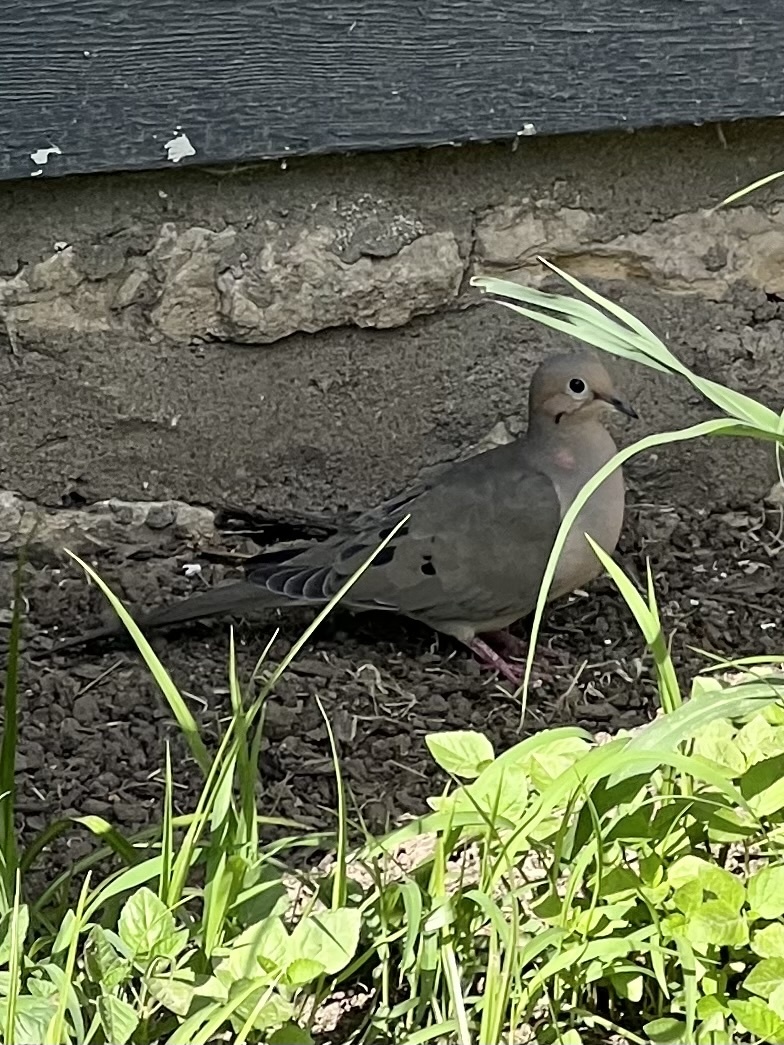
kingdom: Animalia
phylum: Chordata
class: Aves
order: Columbiformes
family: Columbidae
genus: Zenaida
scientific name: Zenaida macroura
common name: Mourning dove
